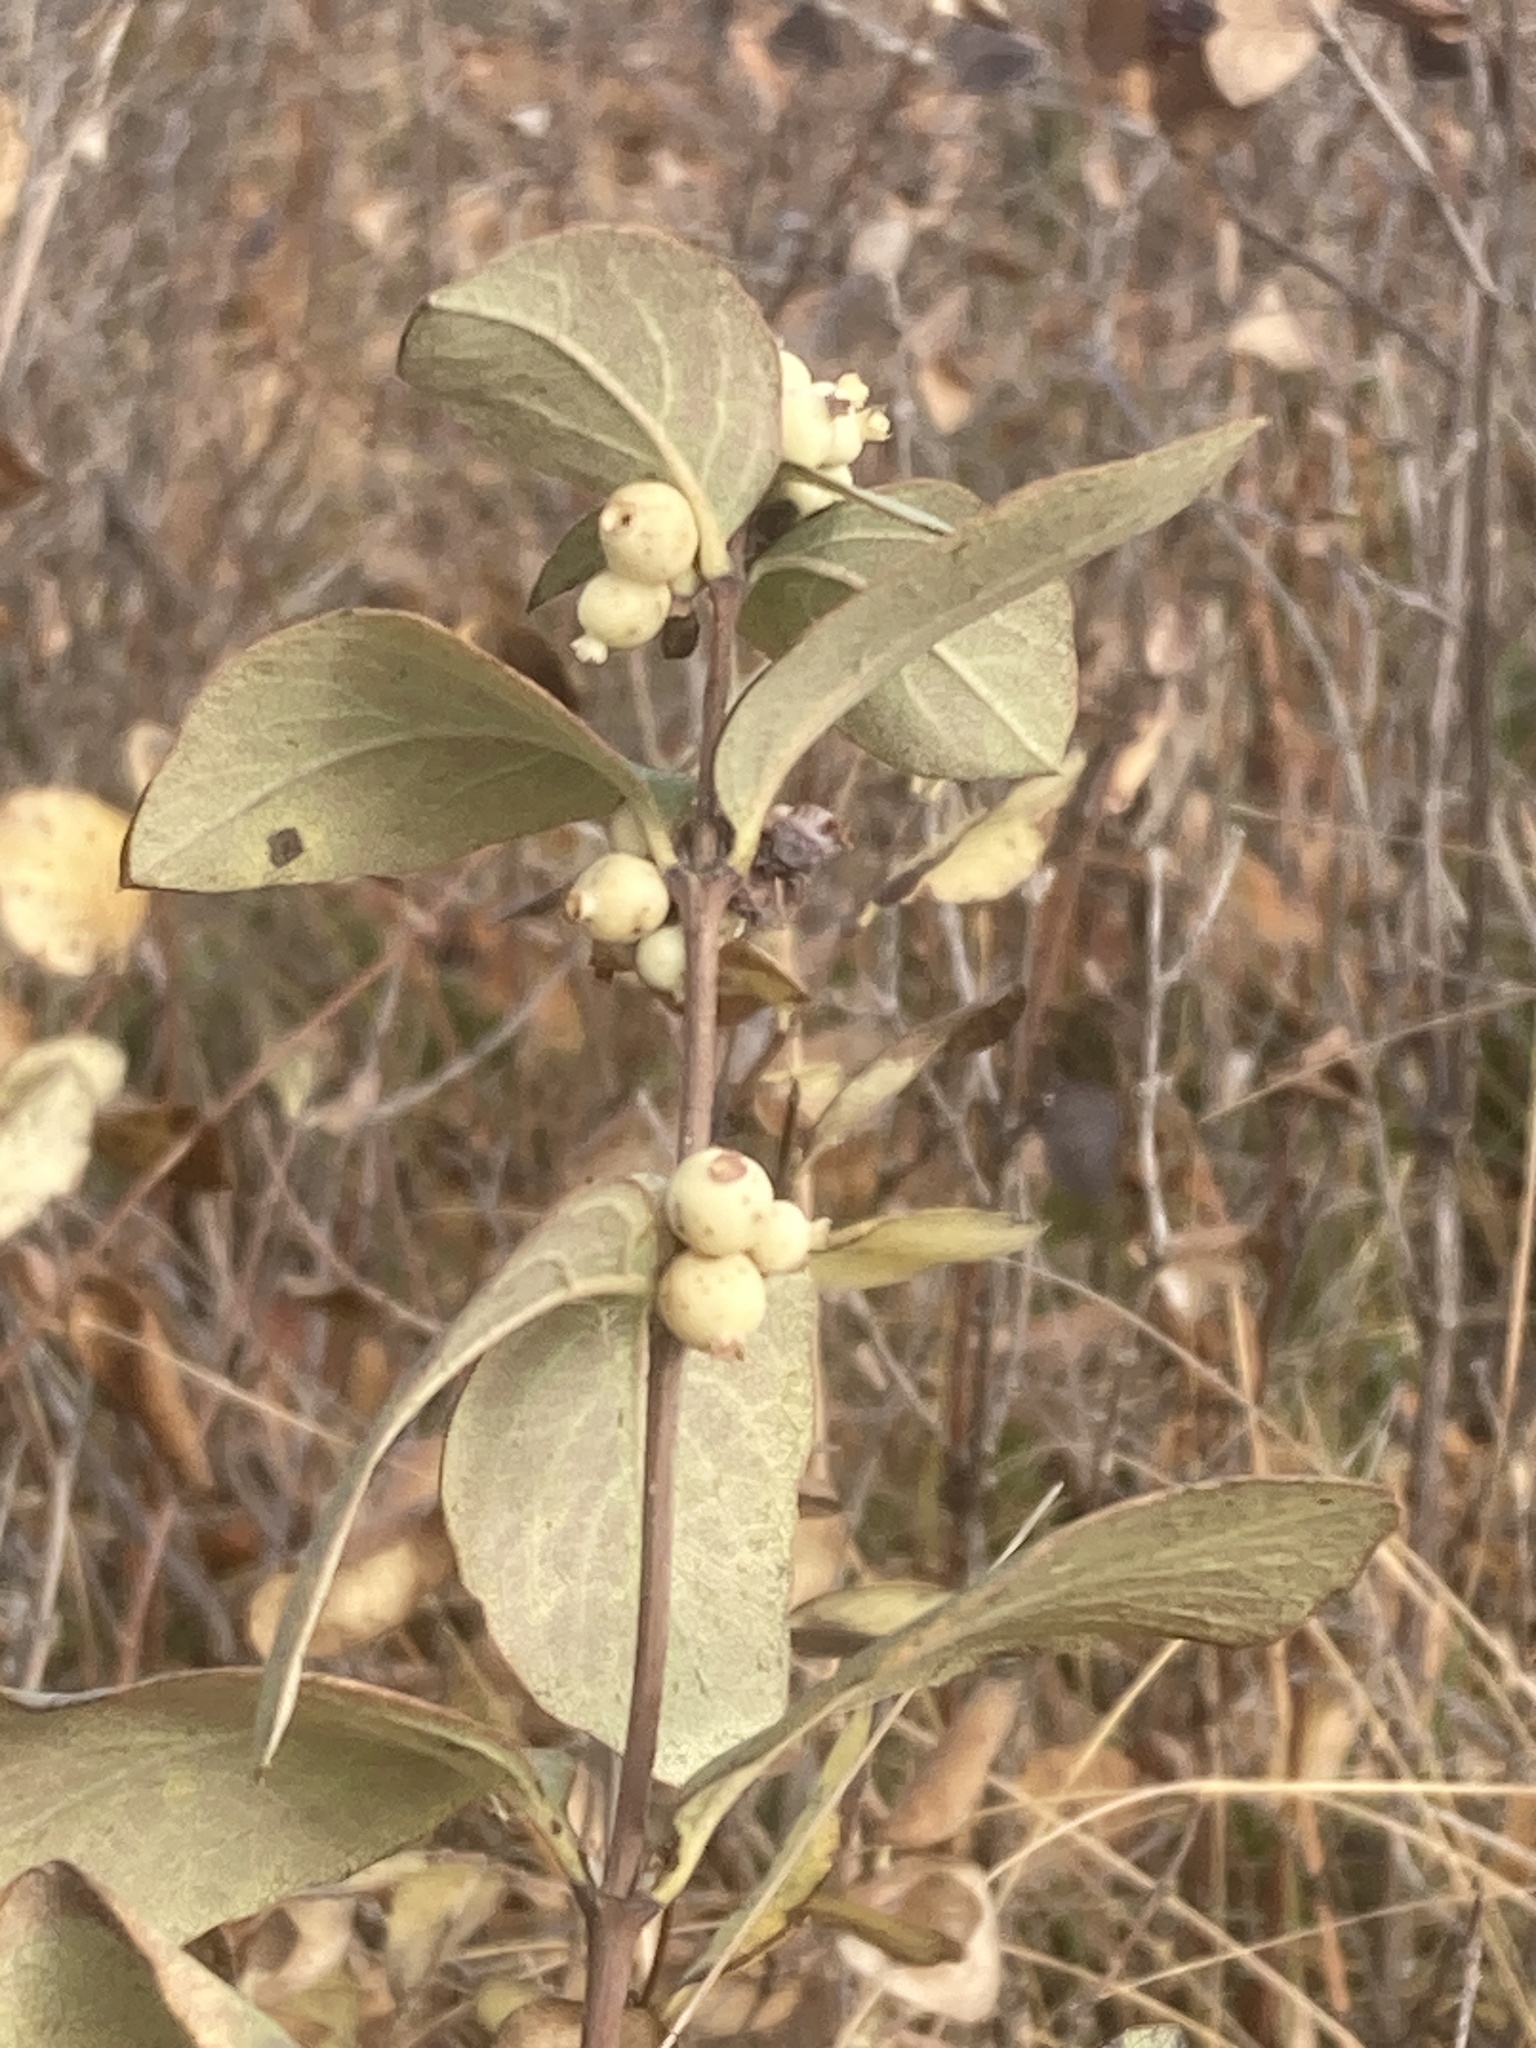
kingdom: Plantae
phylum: Tracheophyta
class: Magnoliopsida
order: Dipsacales
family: Caprifoliaceae
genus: Symphoricarpos
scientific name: Symphoricarpos occidentalis
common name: Wolfberry
